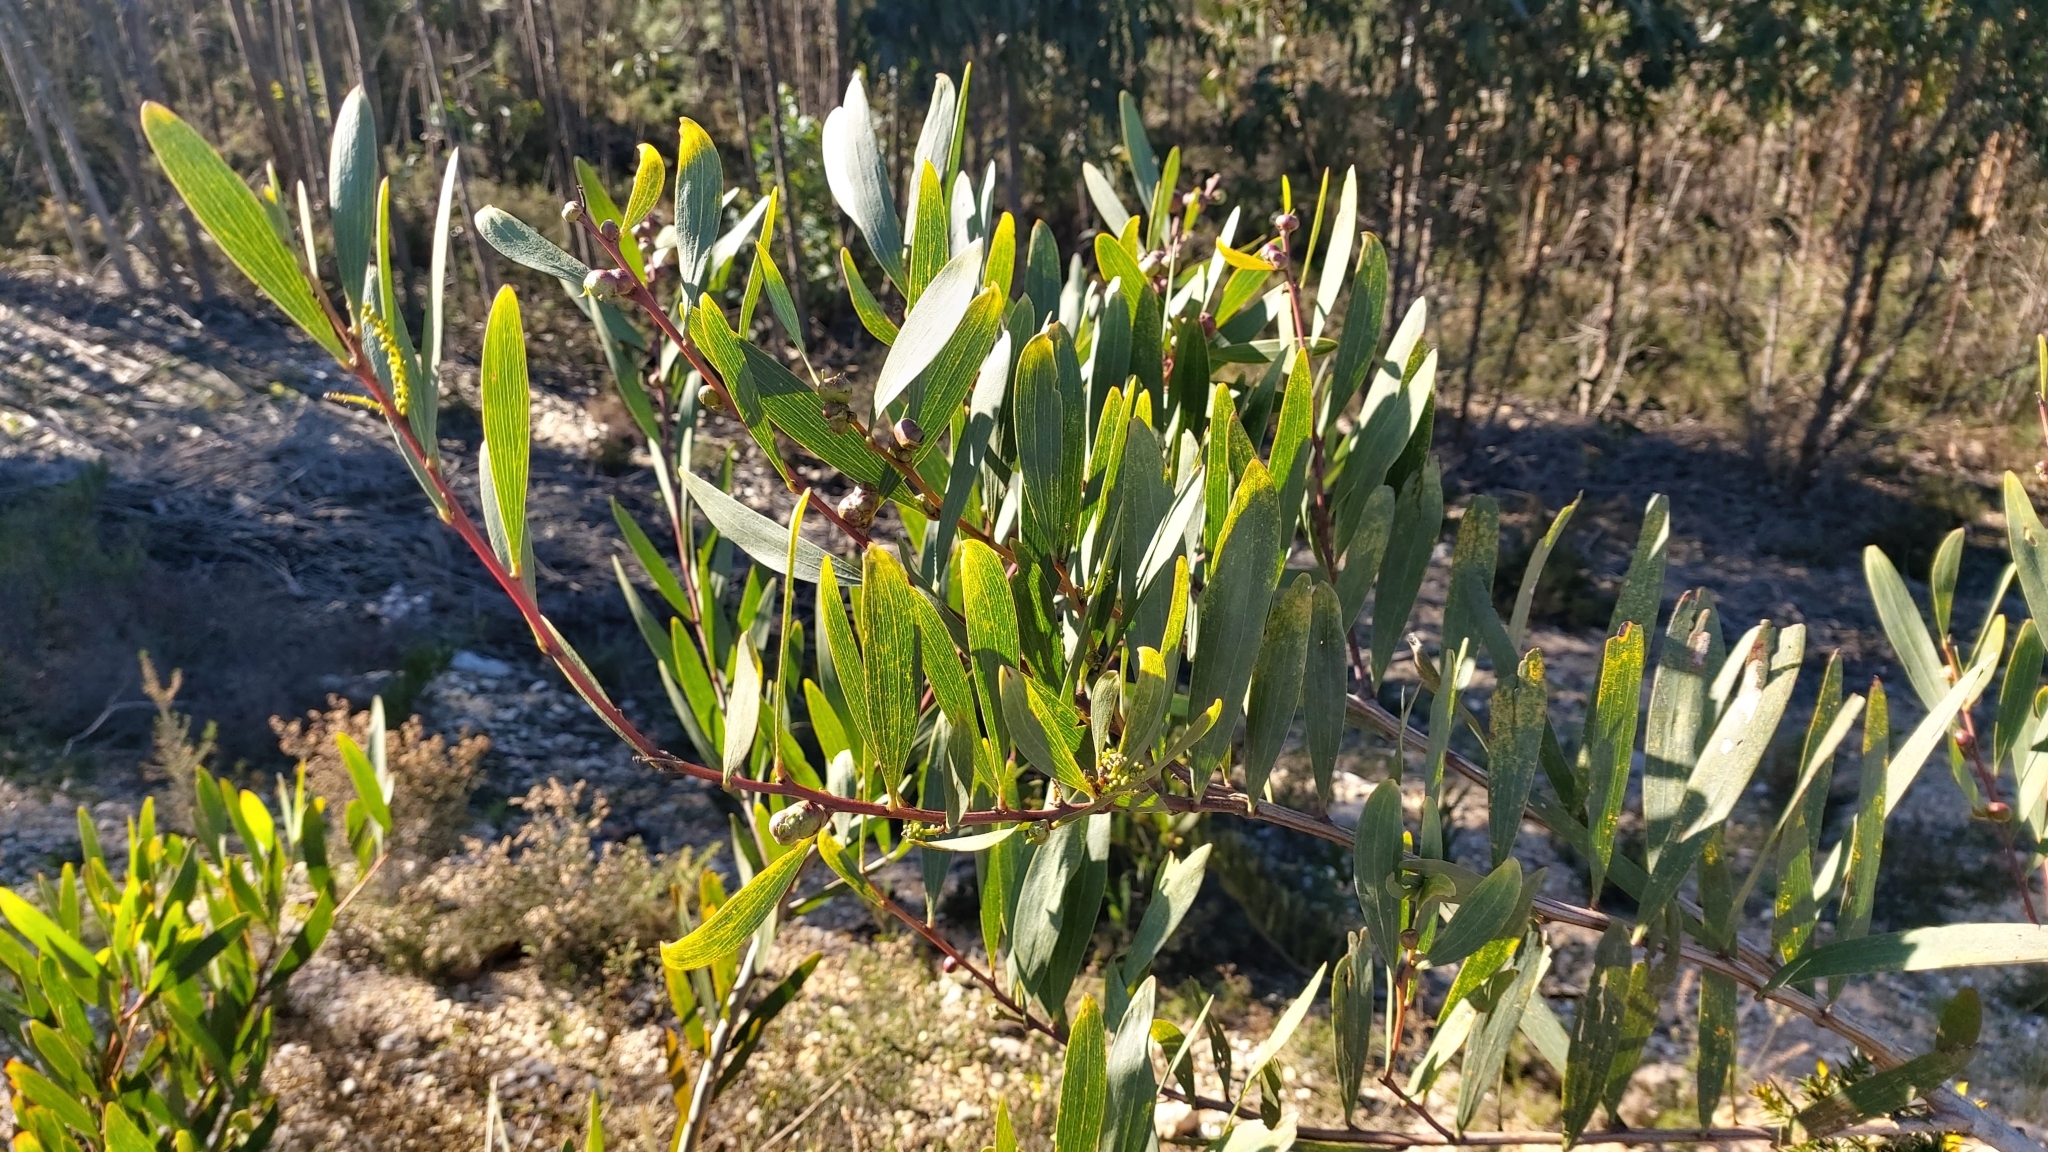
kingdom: Plantae
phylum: Tracheophyta
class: Magnoliopsida
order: Fabales
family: Fabaceae
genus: Acacia
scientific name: Acacia longifolia
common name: Sydney golden wattle
